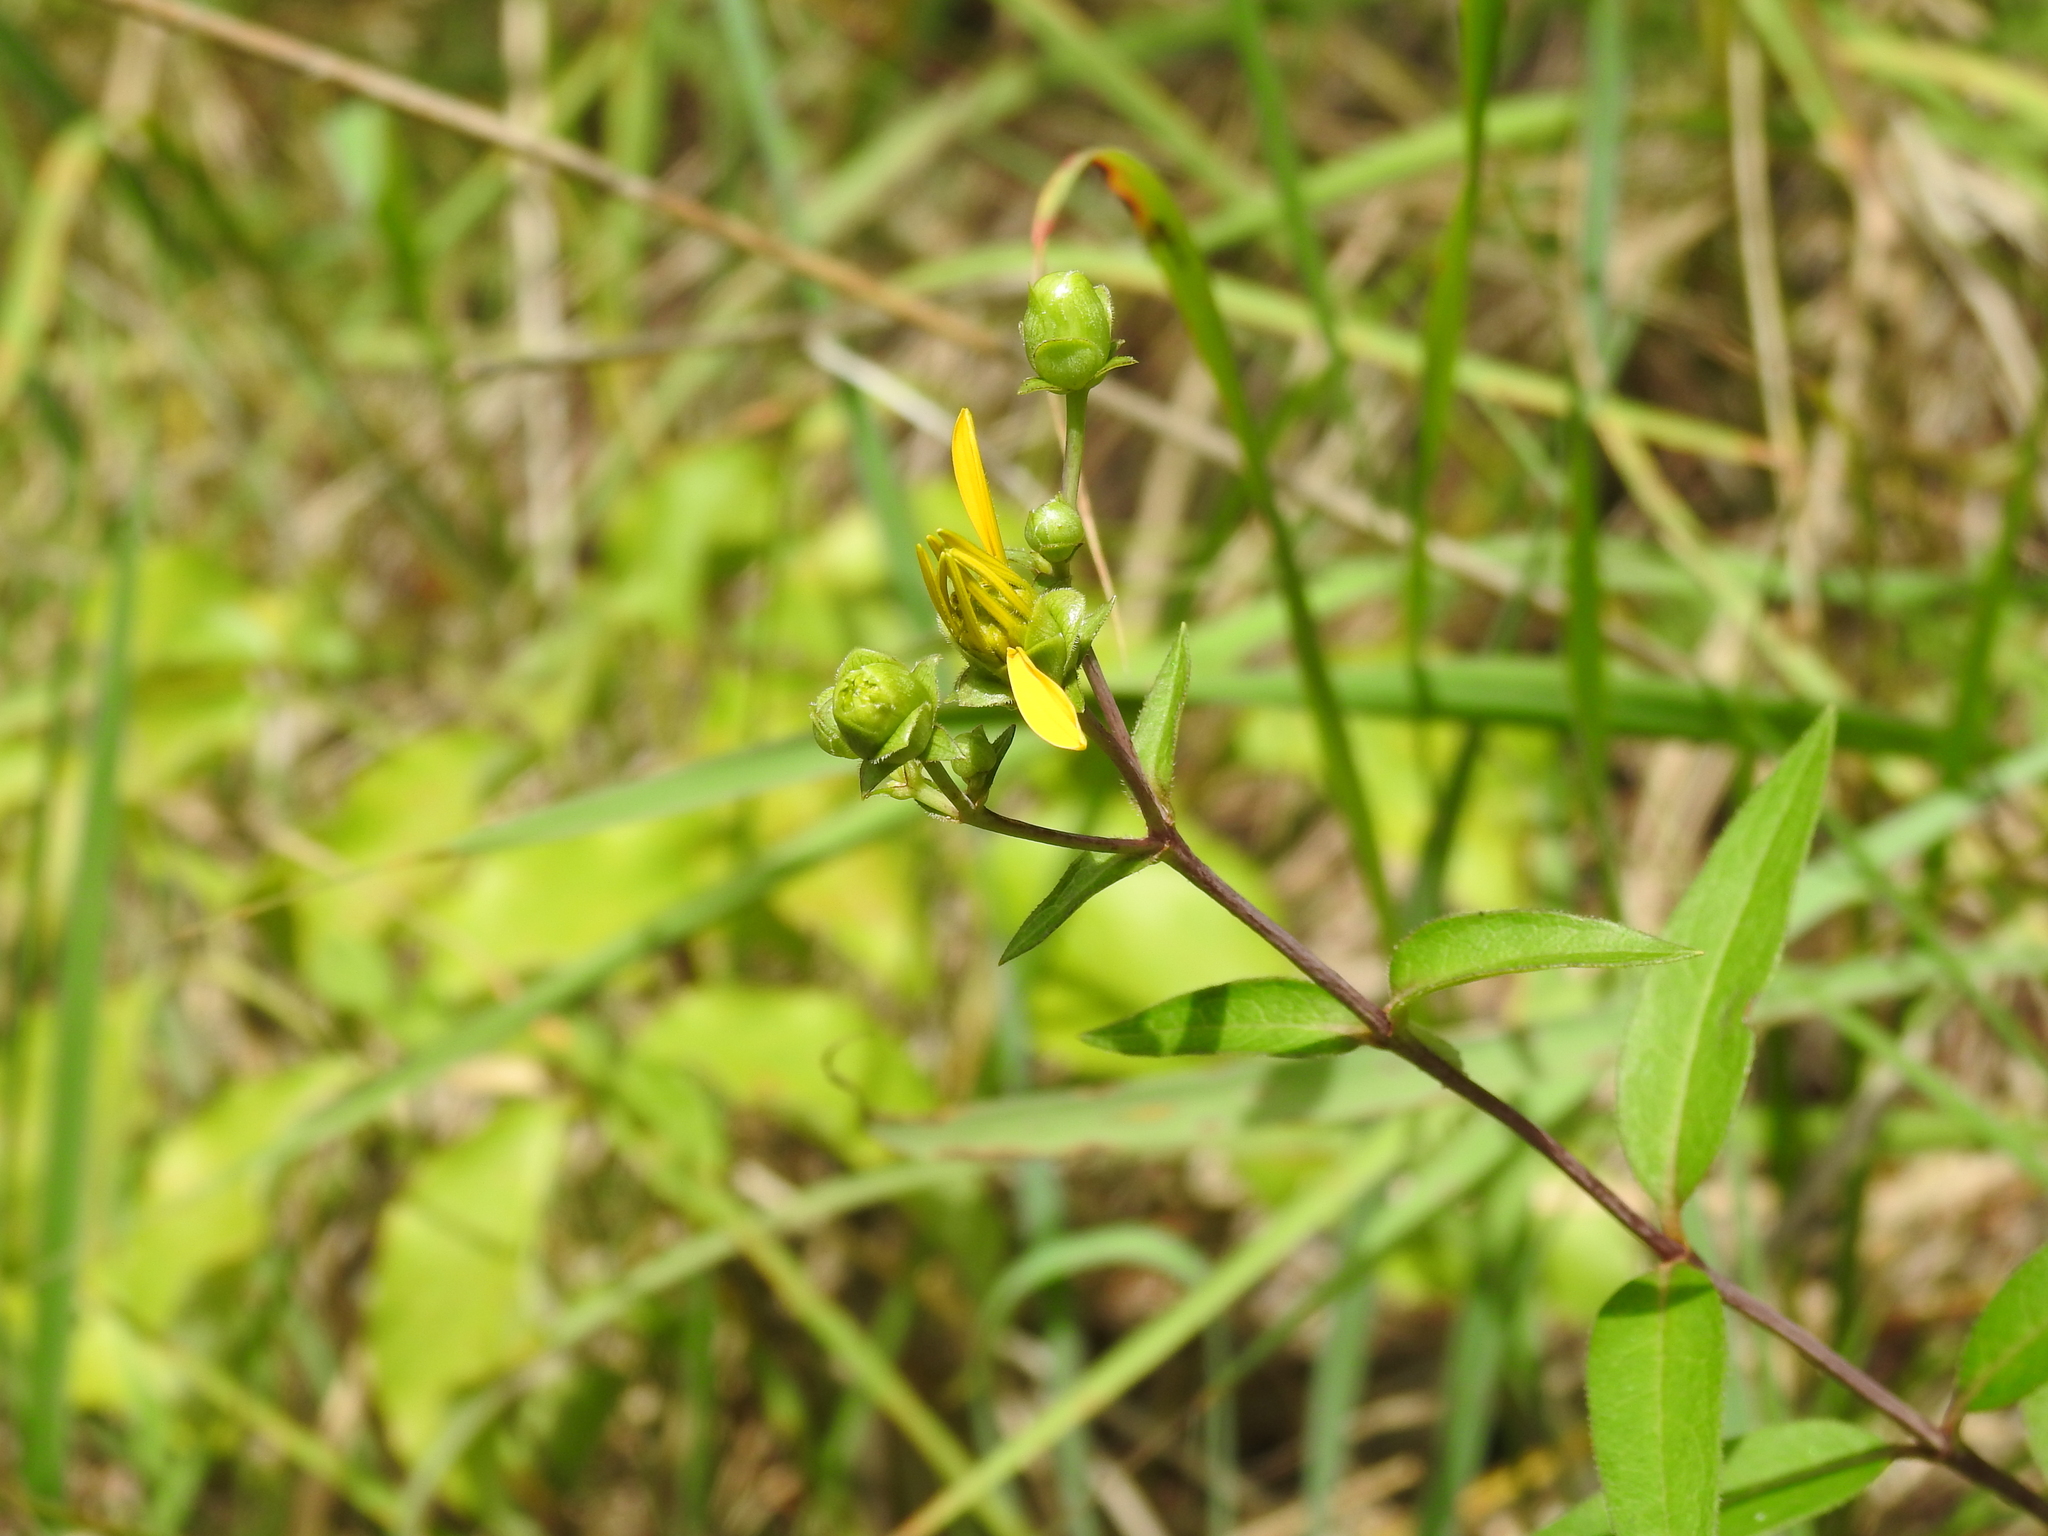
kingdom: Plantae
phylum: Tracheophyta
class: Magnoliopsida
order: Asterales
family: Asteraceae
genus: Silphium
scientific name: Silphium asteriscus
